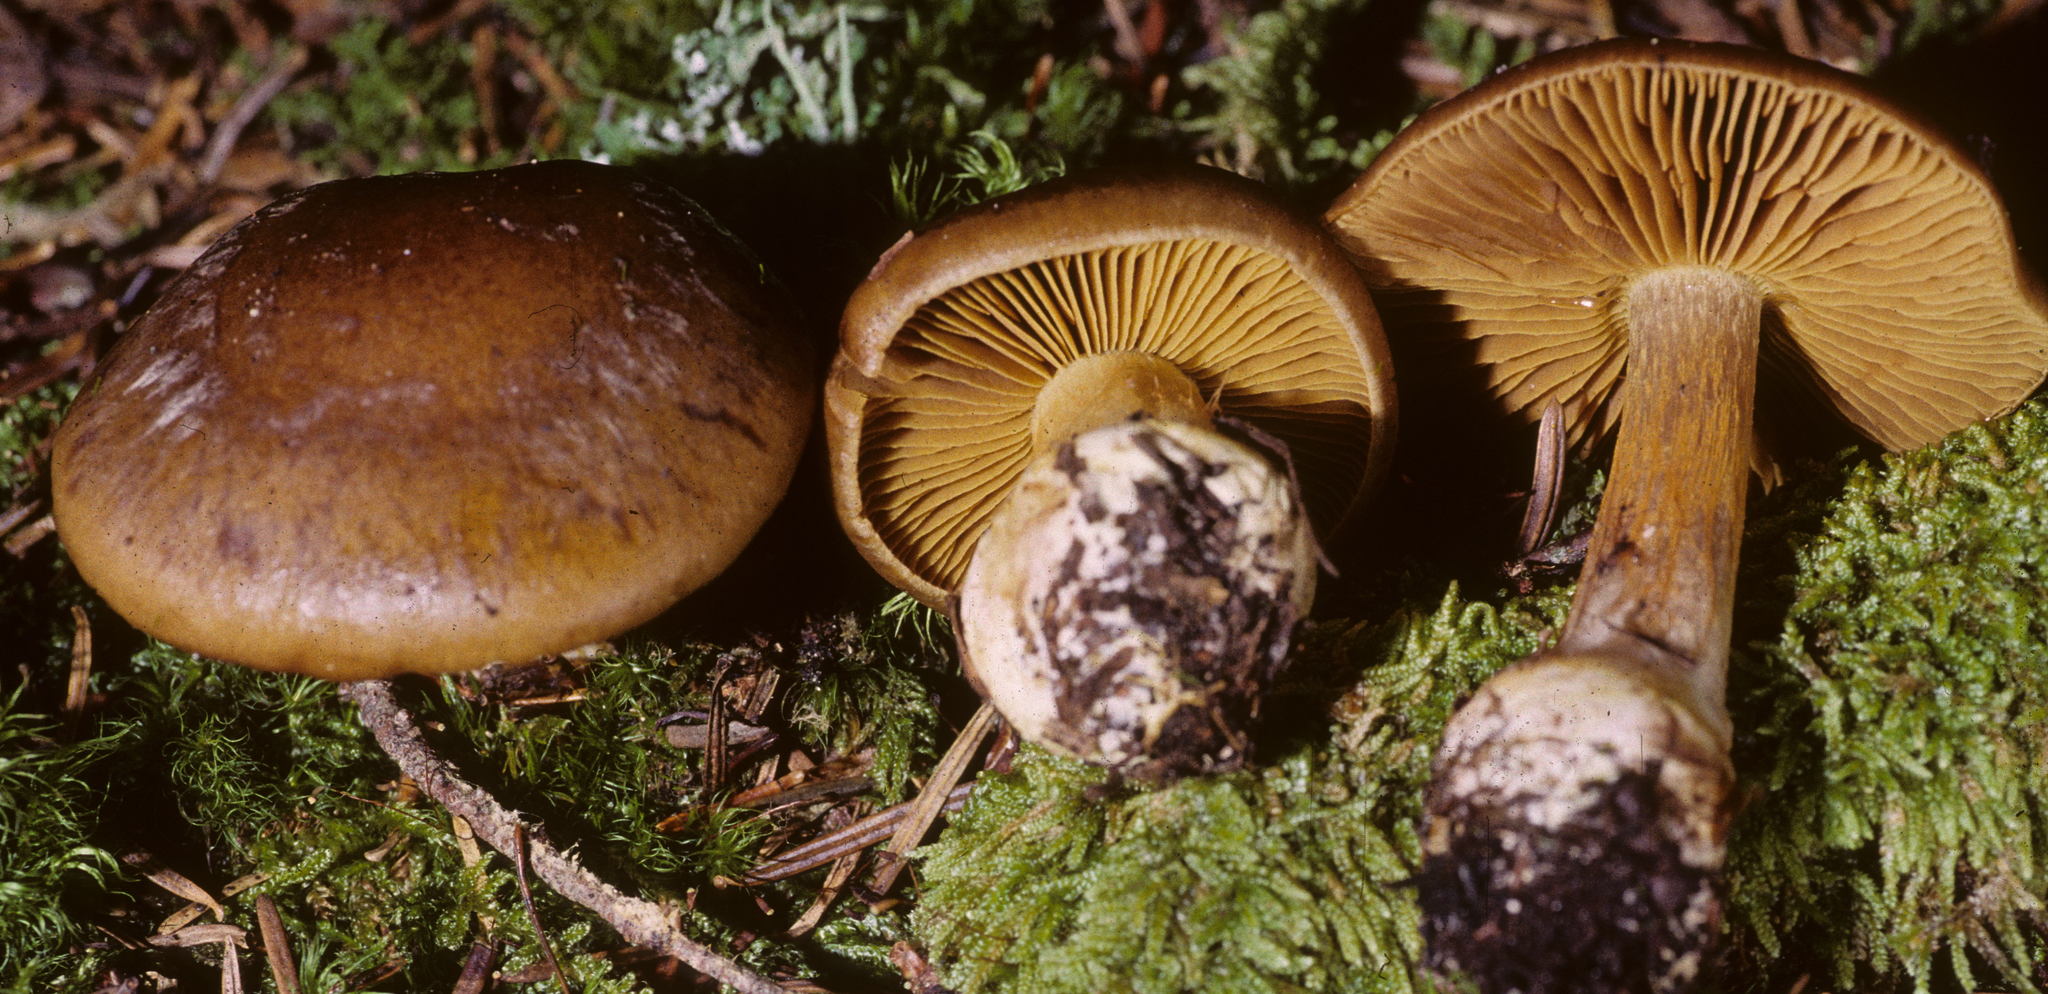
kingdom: Fungi
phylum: Basidiomycota
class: Agaricomycetes
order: Agaricales
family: Cortinariaceae
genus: Thaxterogaster
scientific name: Thaxterogaster scaurus
